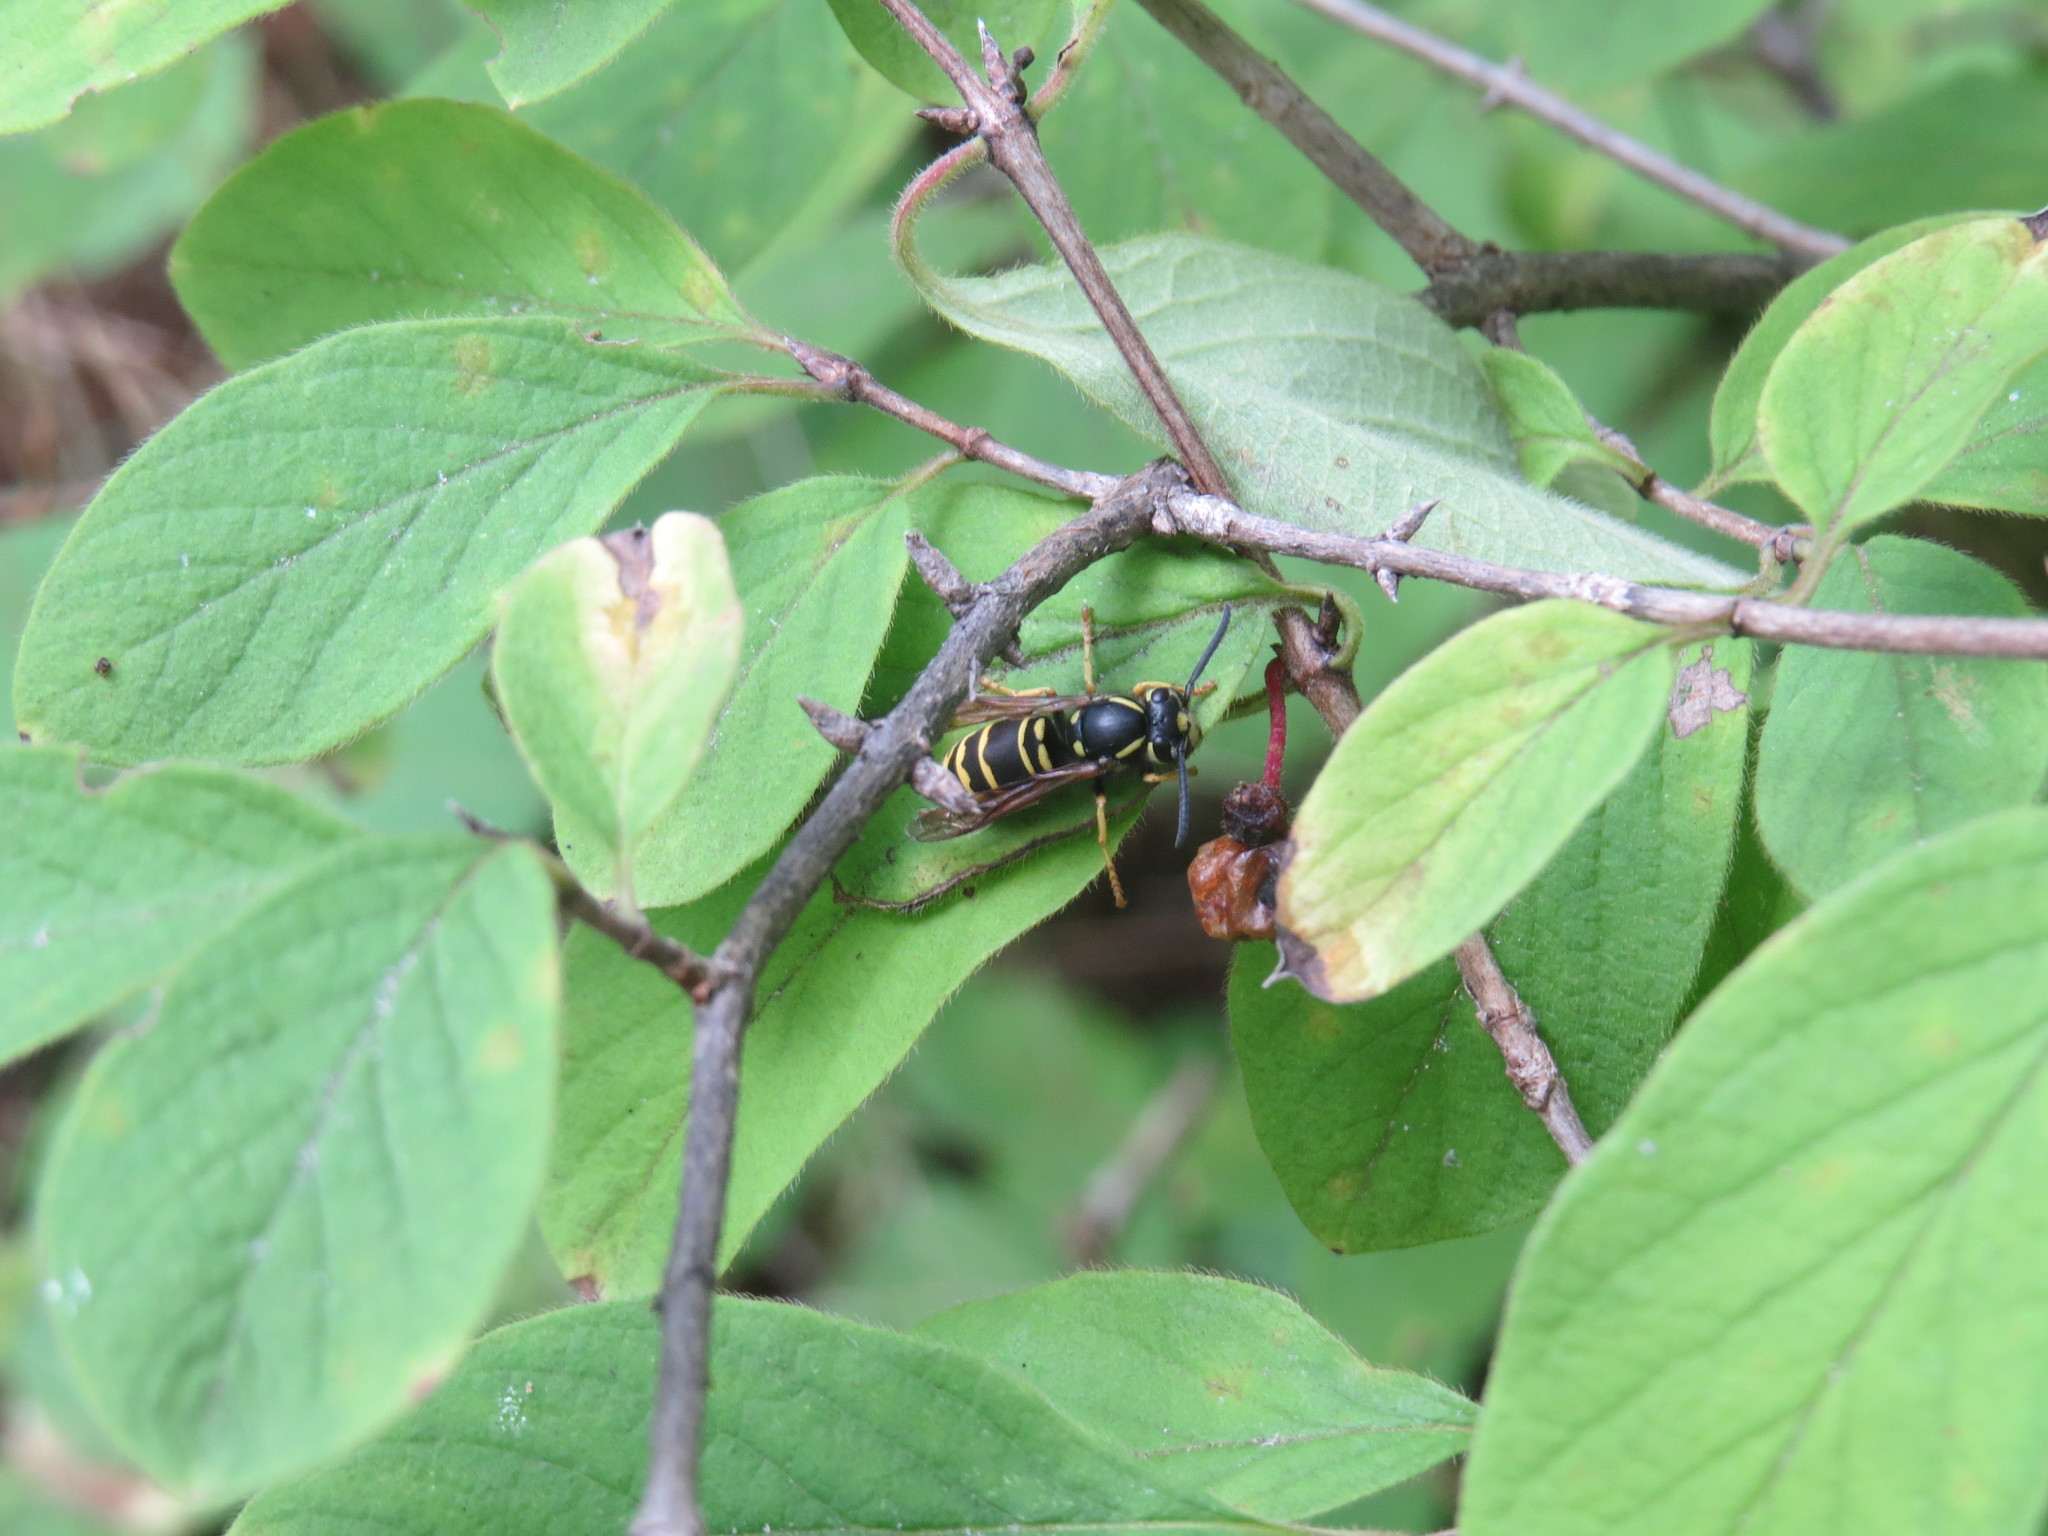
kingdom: Animalia
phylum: Arthropoda
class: Insecta
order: Hymenoptera
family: Vespidae
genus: Vespula
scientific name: Vespula vidua
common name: Widow yellowjacket
